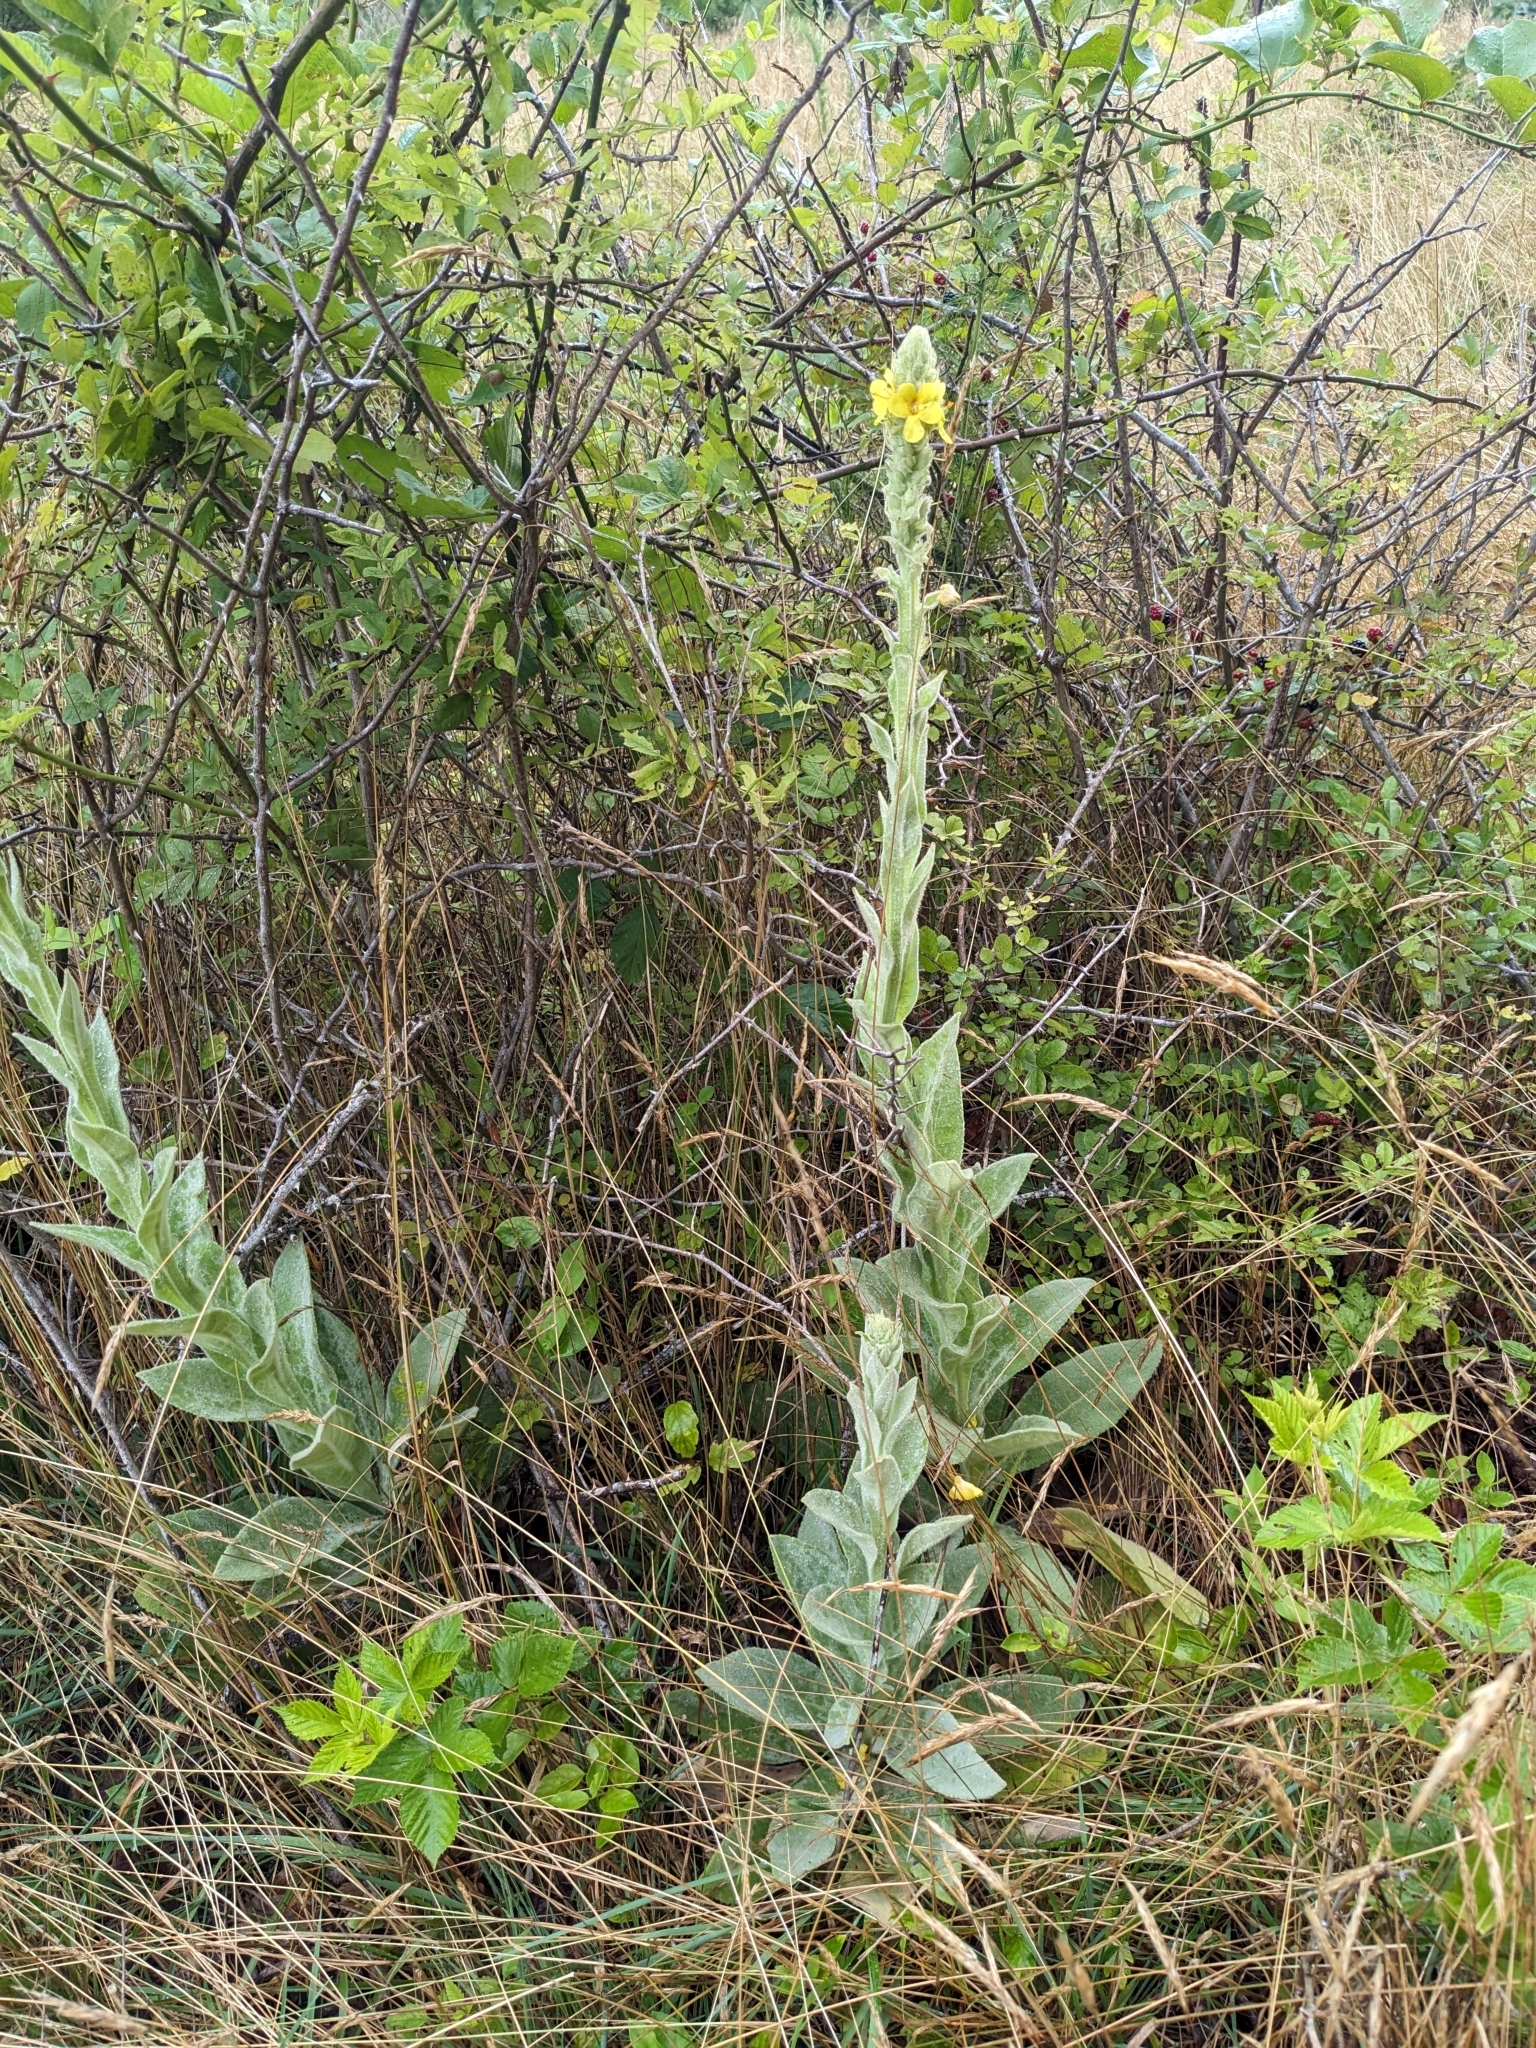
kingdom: Plantae
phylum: Tracheophyta
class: Magnoliopsida
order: Lamiales
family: Scrophulariaceae
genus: Verbascum
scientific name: Verbascum thapsus
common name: Common mullein
